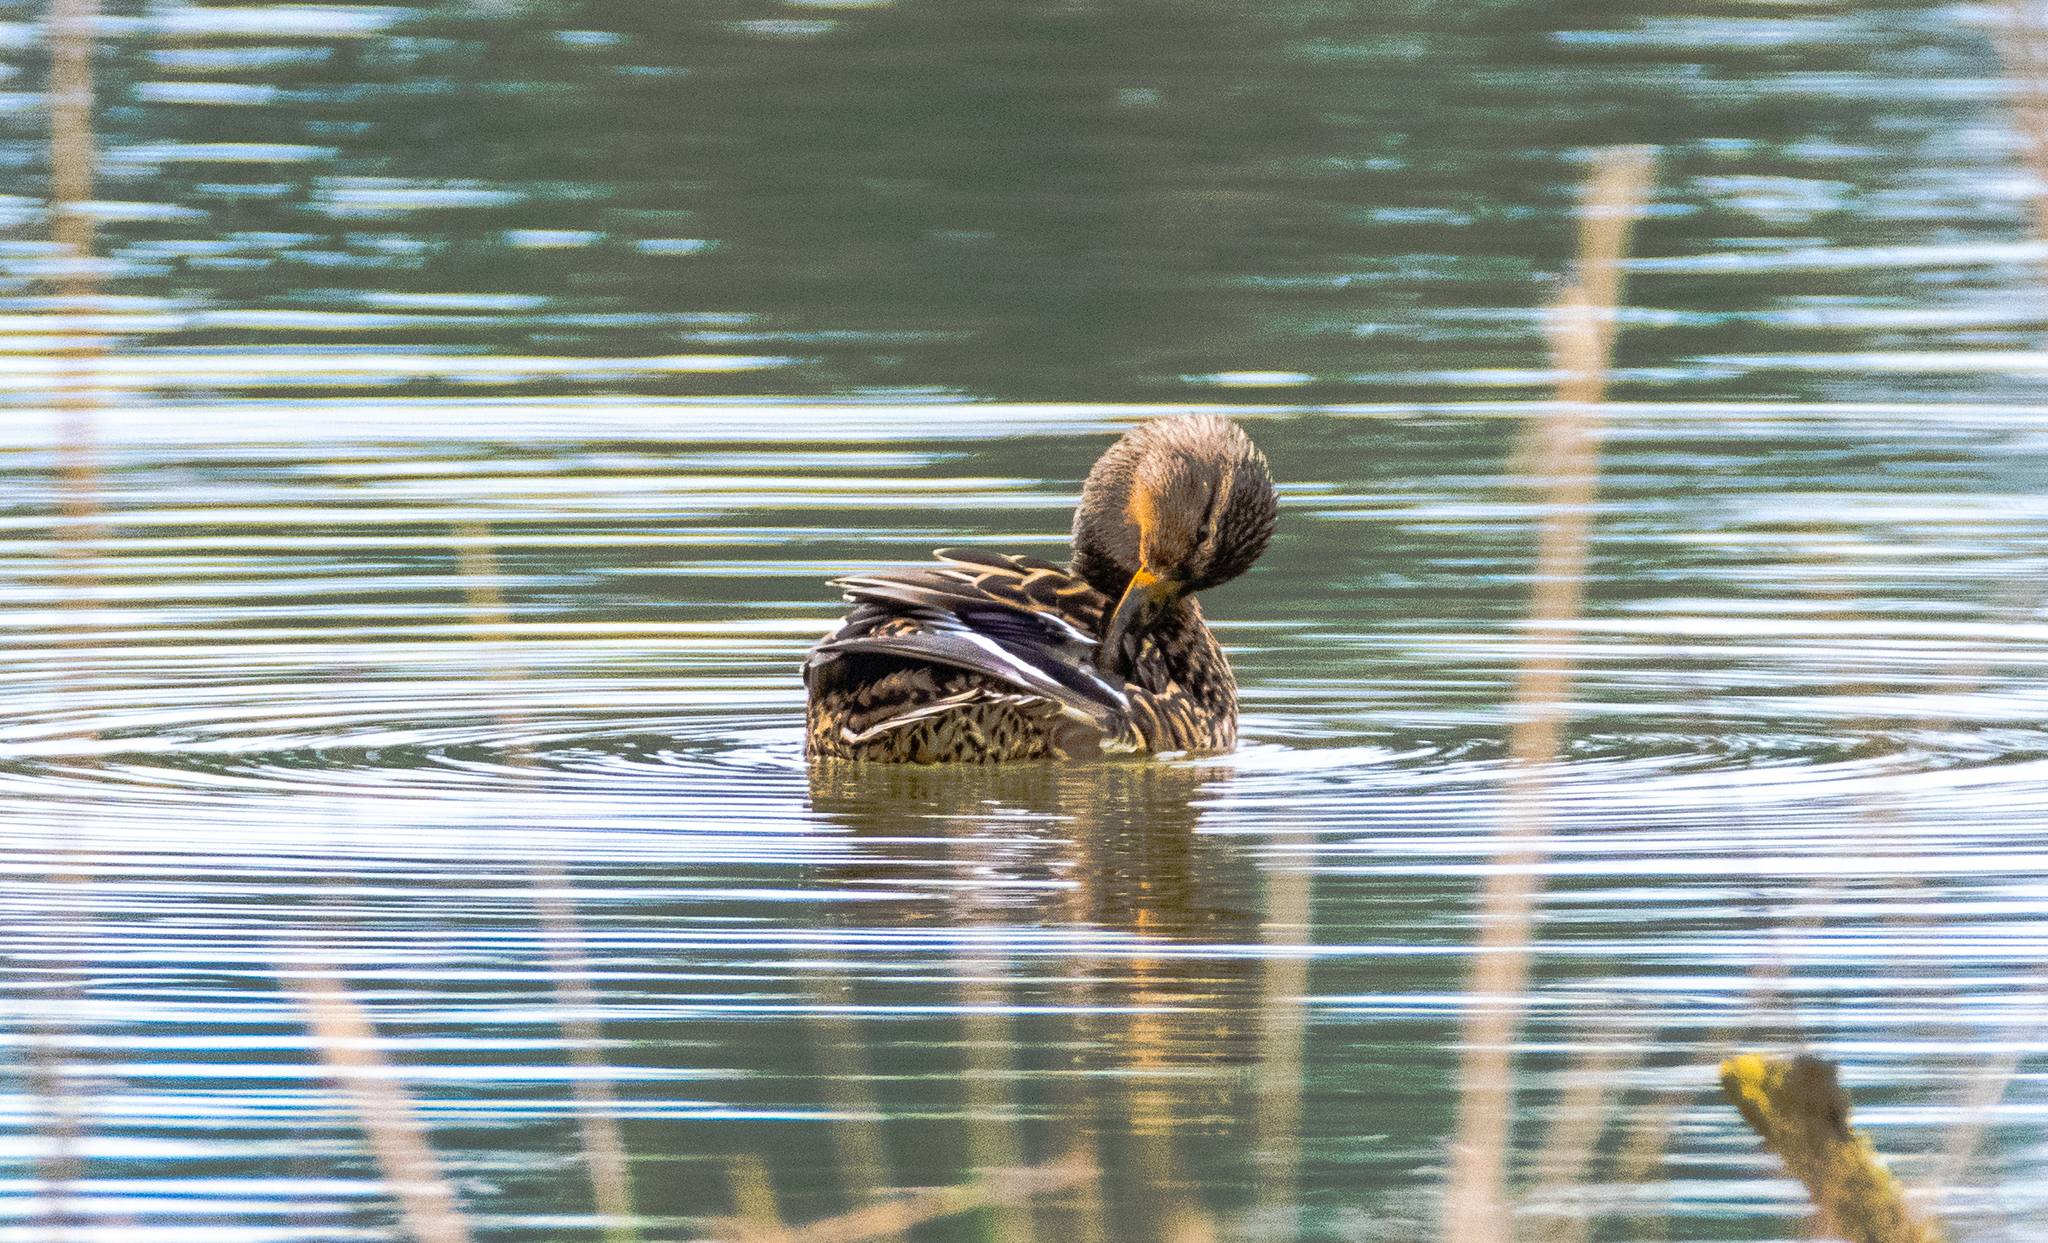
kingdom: Animalia
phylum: Chordata
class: Aves
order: Anseriformes
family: Anatidae
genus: Anas
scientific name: Anas platyrhynchos
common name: Mallard
